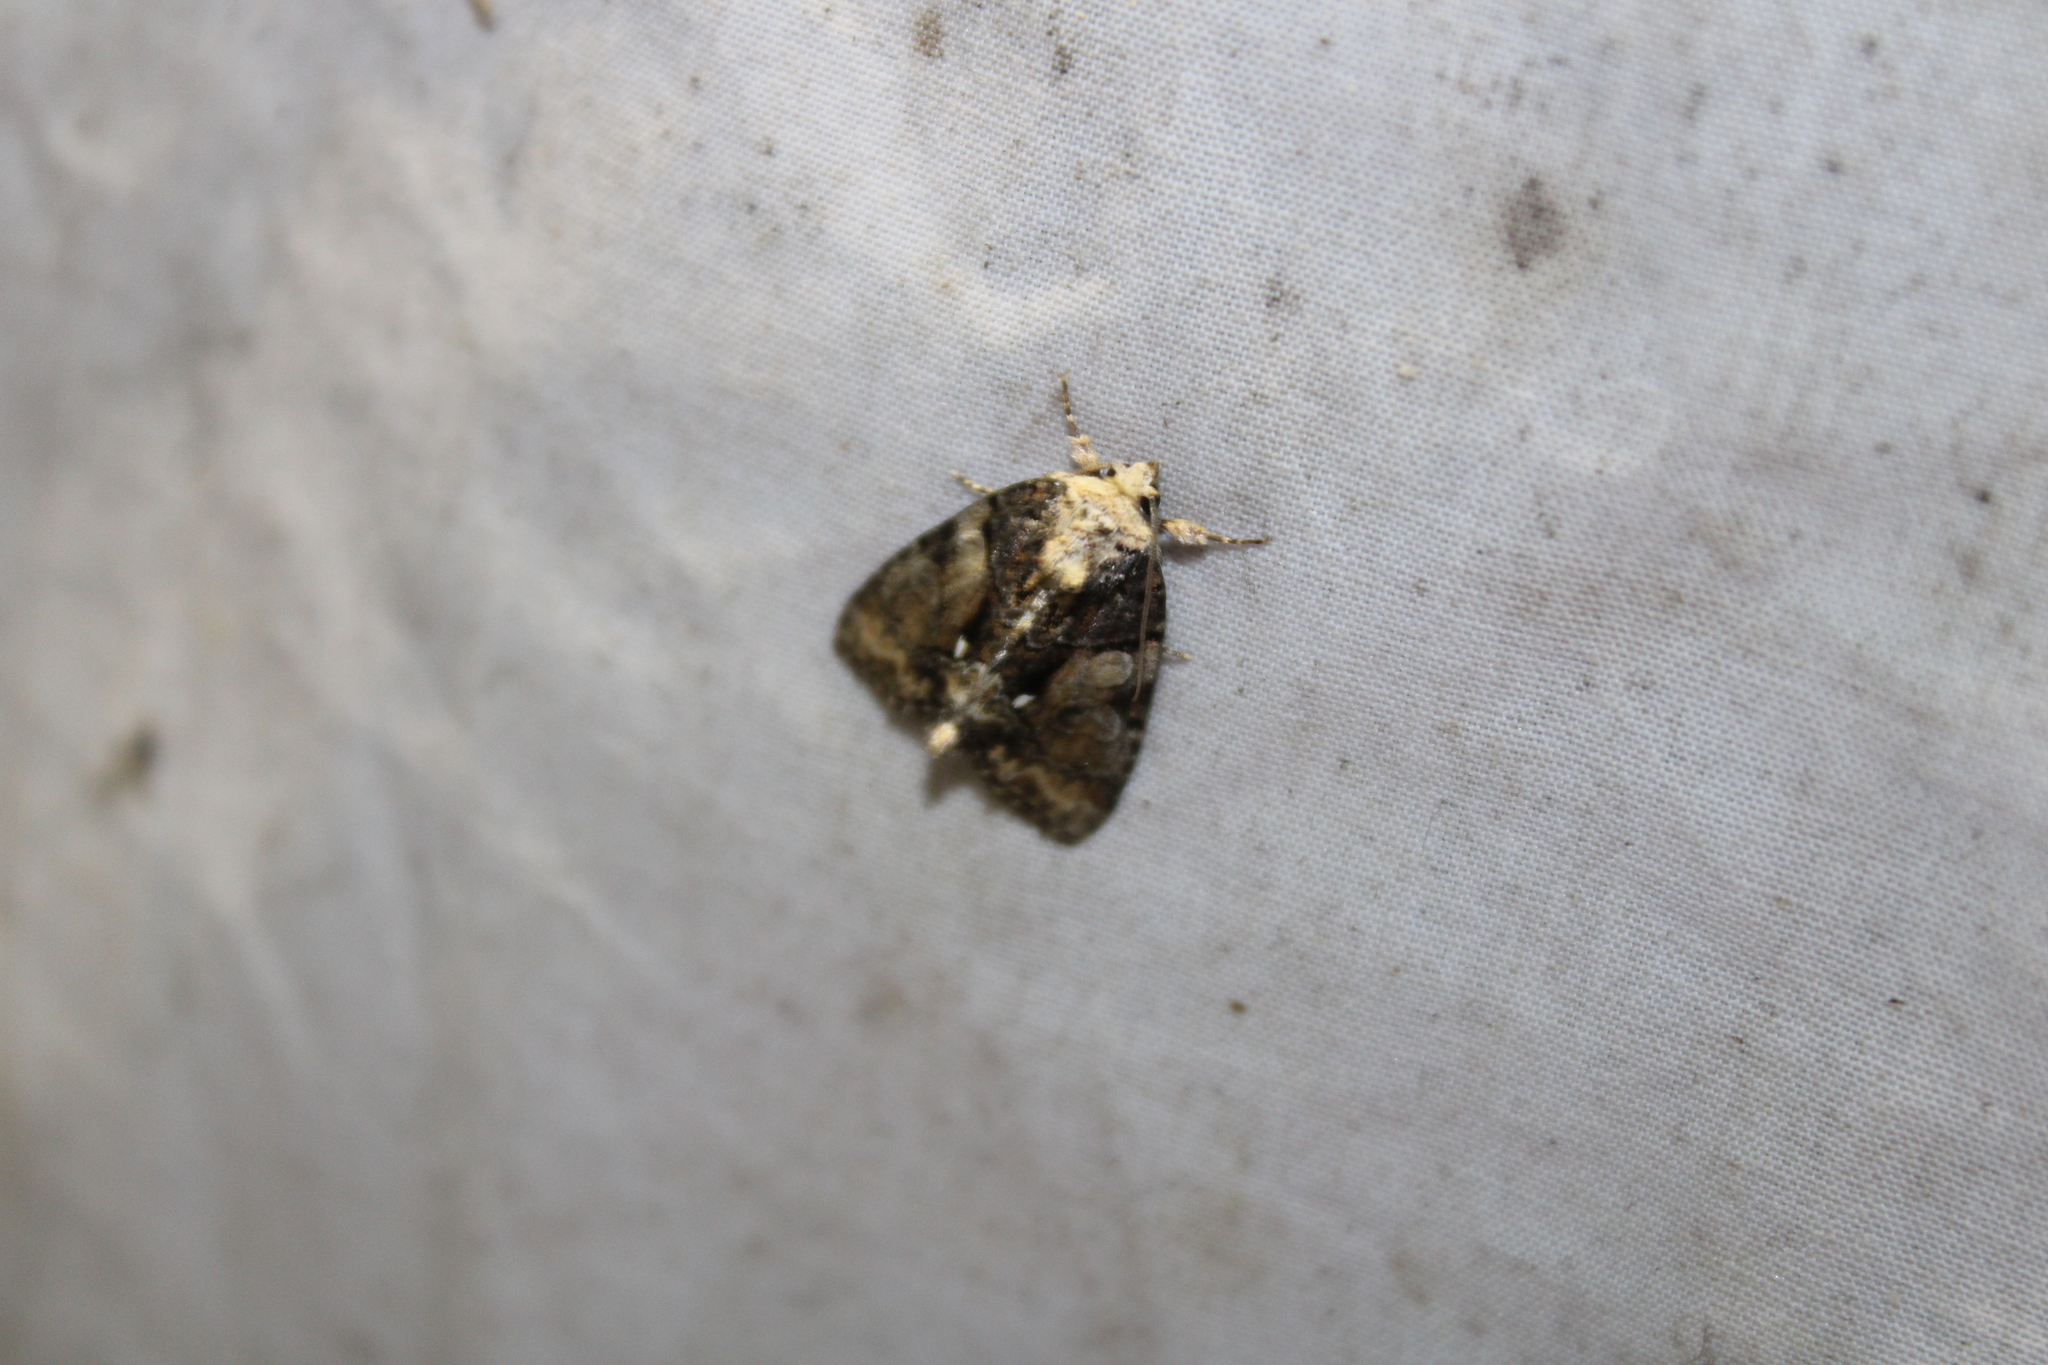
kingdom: Animalia
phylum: Arthropoda
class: Insecta
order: Lepidoptera
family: Noctuidae
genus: Chytonix
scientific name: Chytonix palliatricula
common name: Cloaked marvel
